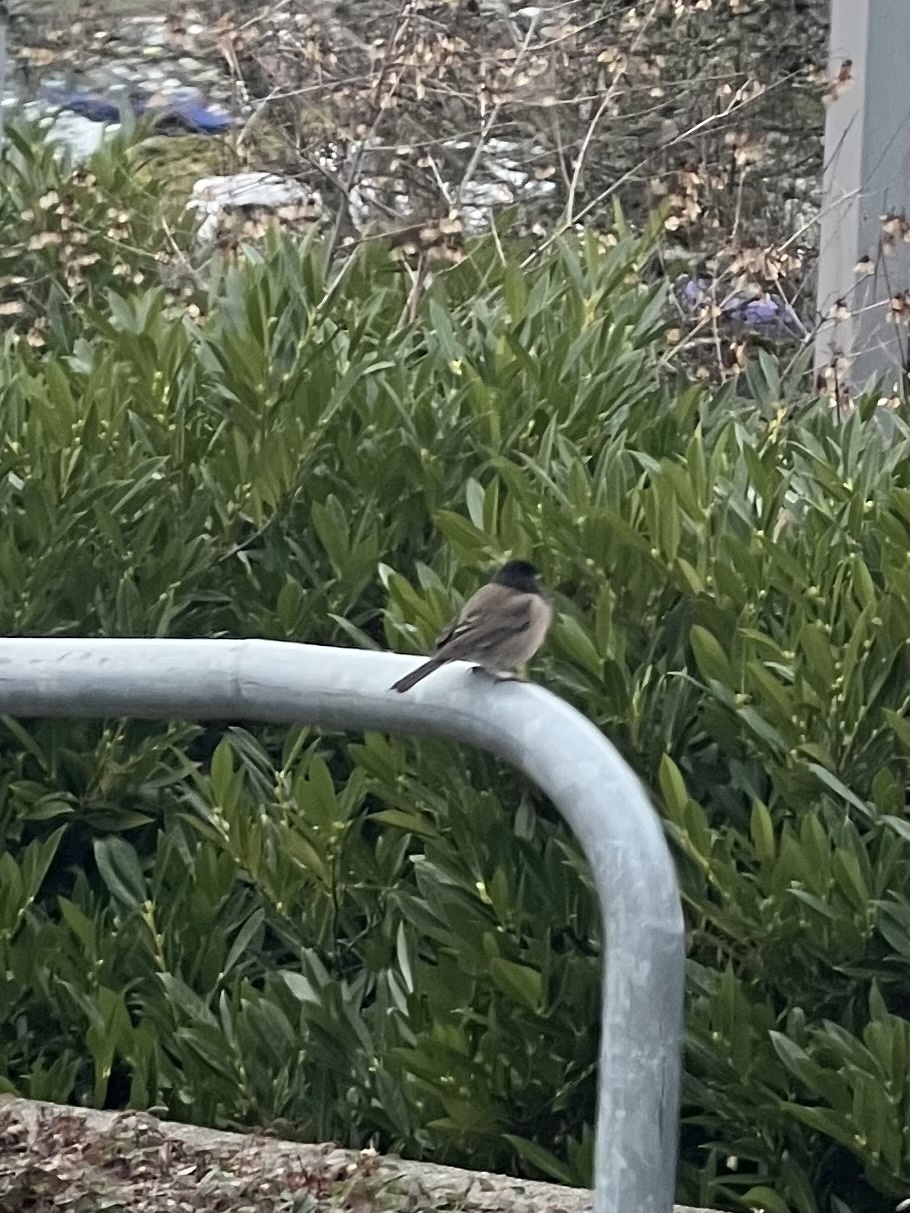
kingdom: Animalia
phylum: Chordata
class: Aves
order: Passeriformes
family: Passerellidae
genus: Junco
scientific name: Junco hyemalis
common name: Dark-eyed junco
